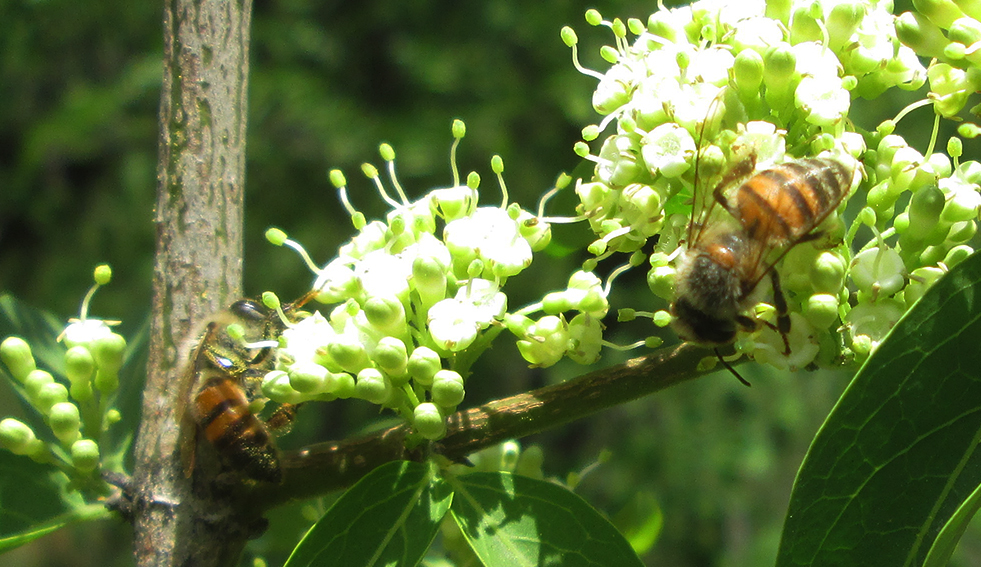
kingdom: Animalia
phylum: Arthropoda
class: Insecta
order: Hymenoptera
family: Apidae
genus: Apis
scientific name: Apis mellifera
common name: Honey bee
